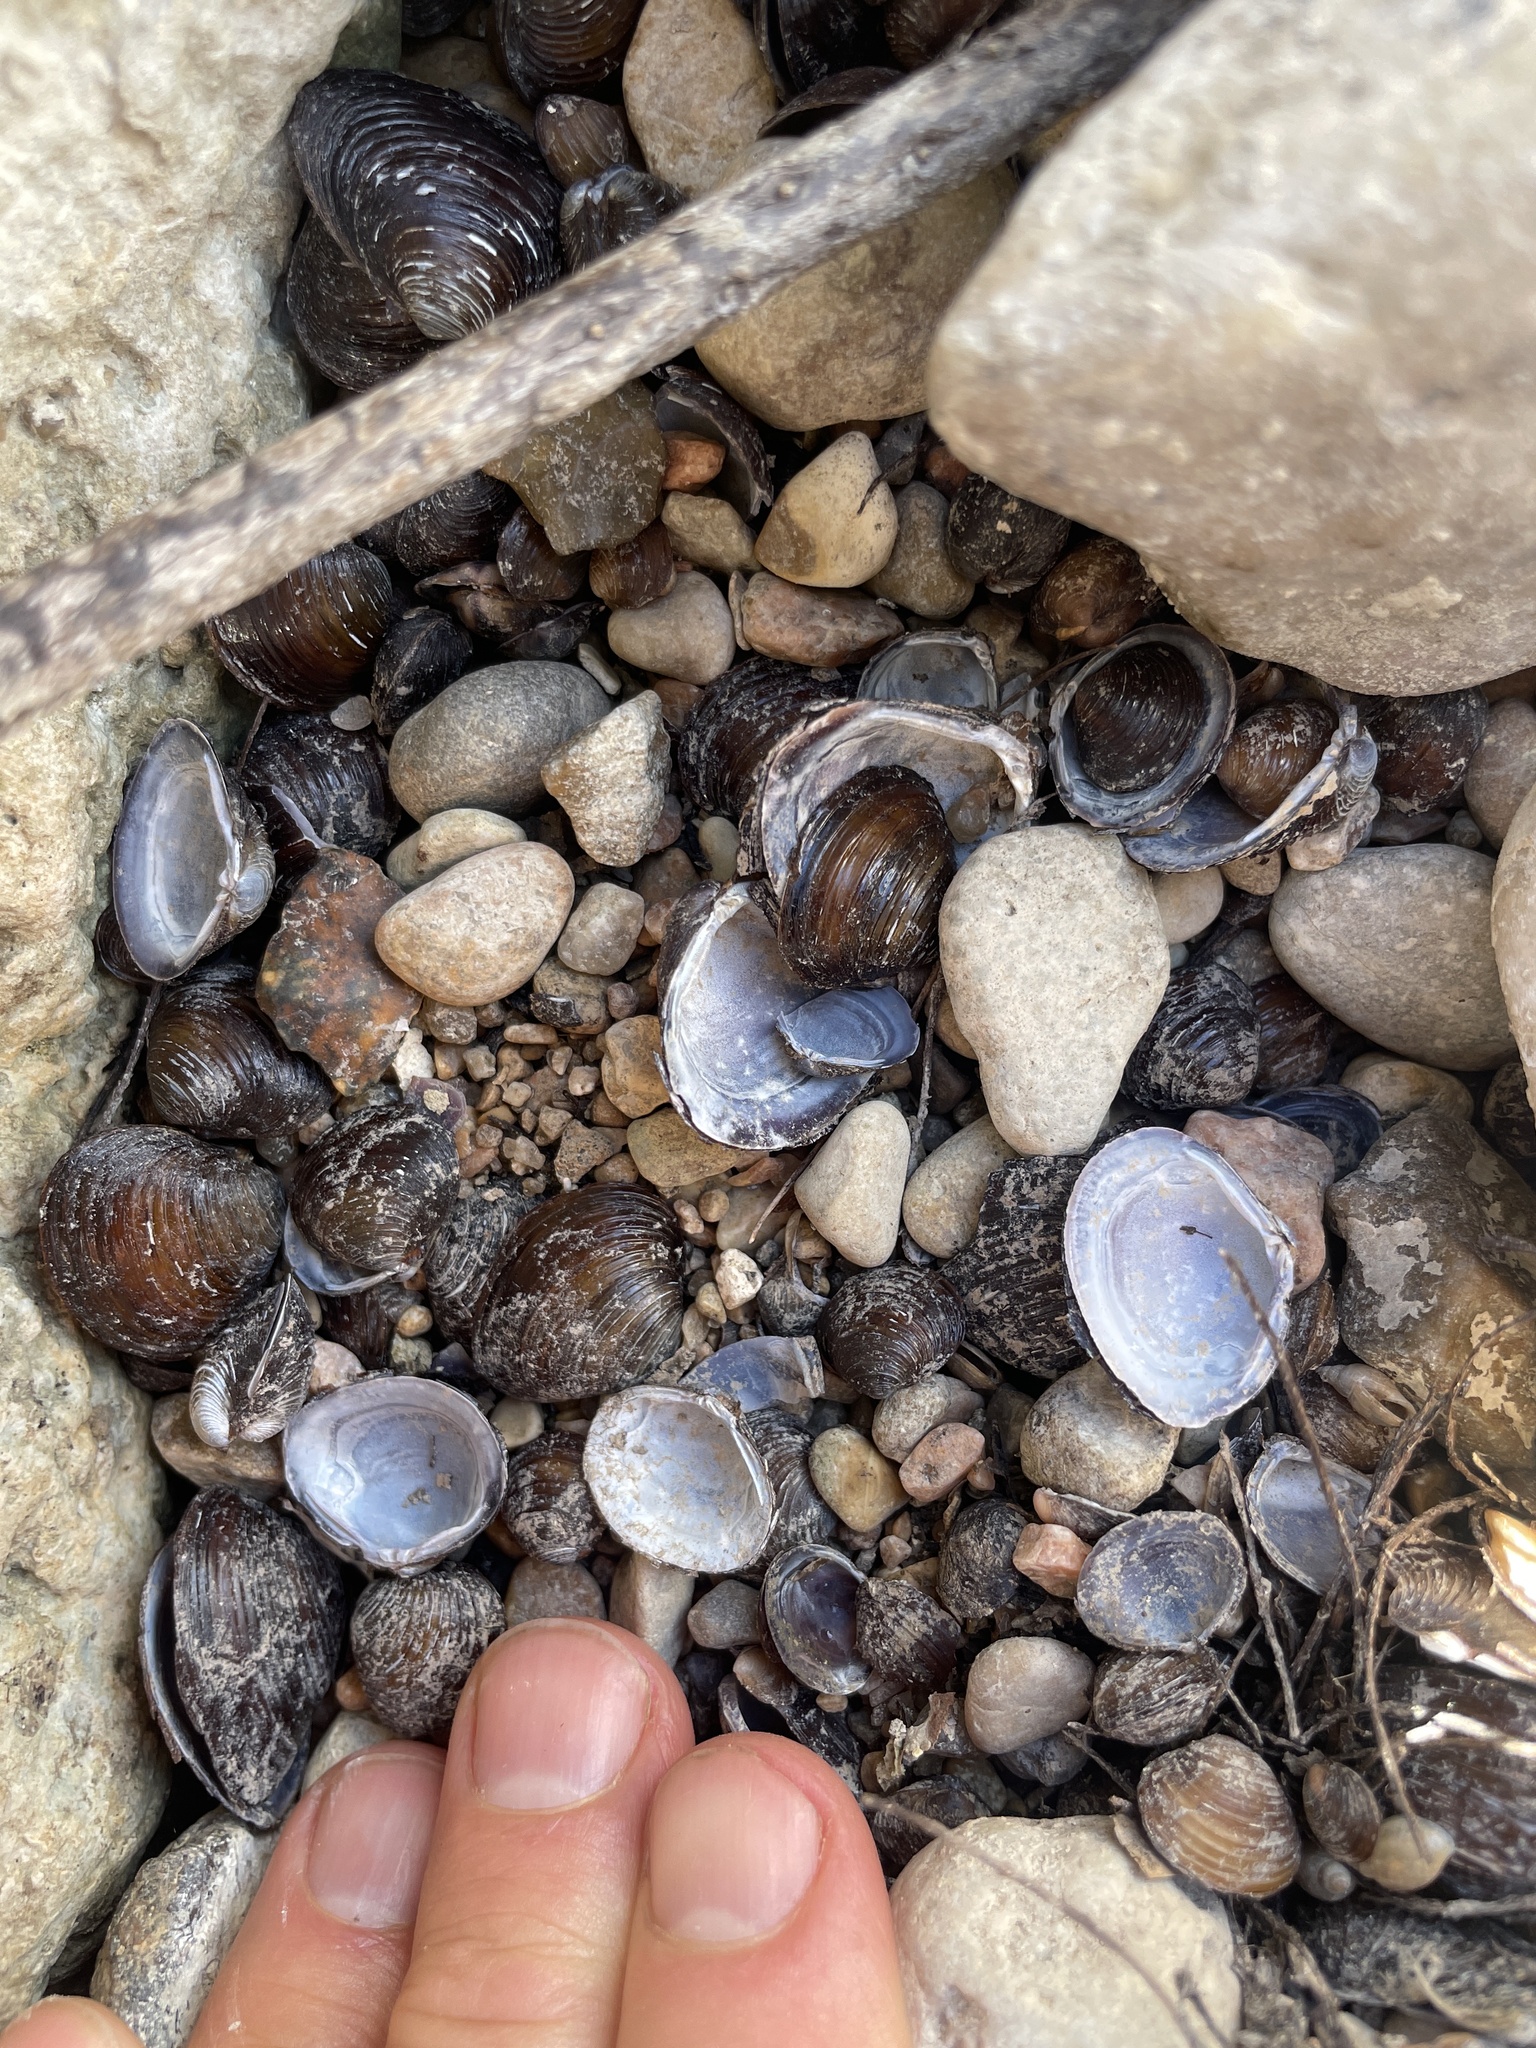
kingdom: Animalia
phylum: Mollusca
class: Bivalvia
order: Venerida
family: Cyrenidae
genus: Corbicula
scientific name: Corbicula fluminea
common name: Asian clam
